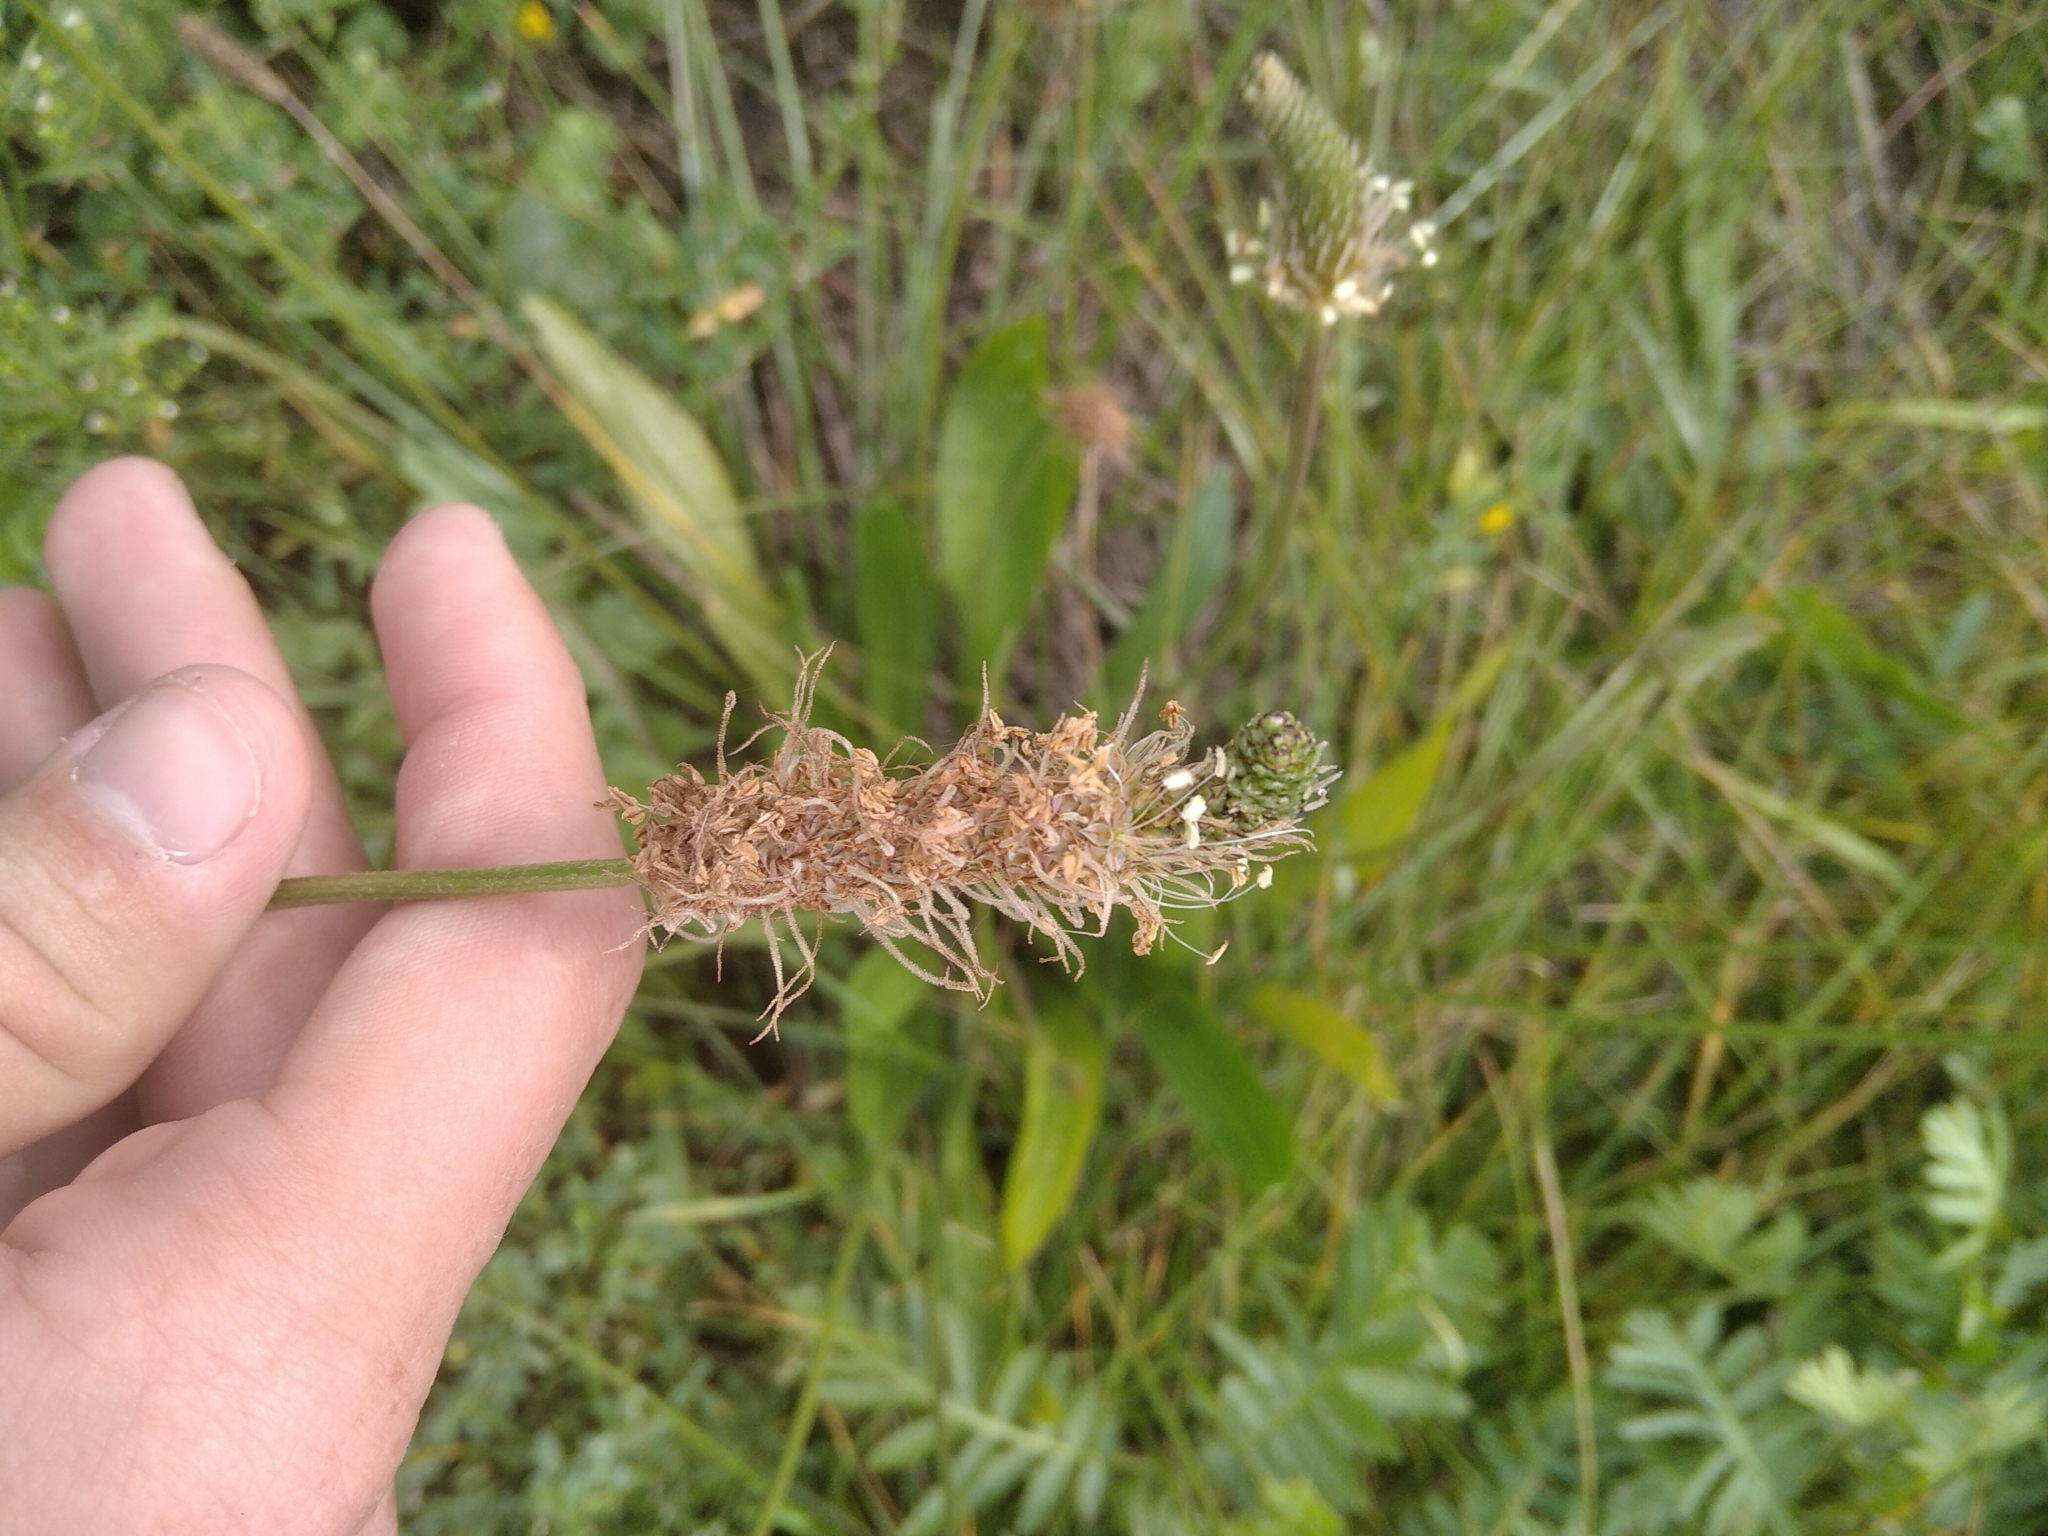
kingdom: Plantae
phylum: Tracheophyta
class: Magnoliopsida
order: Lamiales
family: Plantaginaceae
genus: Plantago
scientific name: Plantago lanceolata
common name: Ribwort plantain
